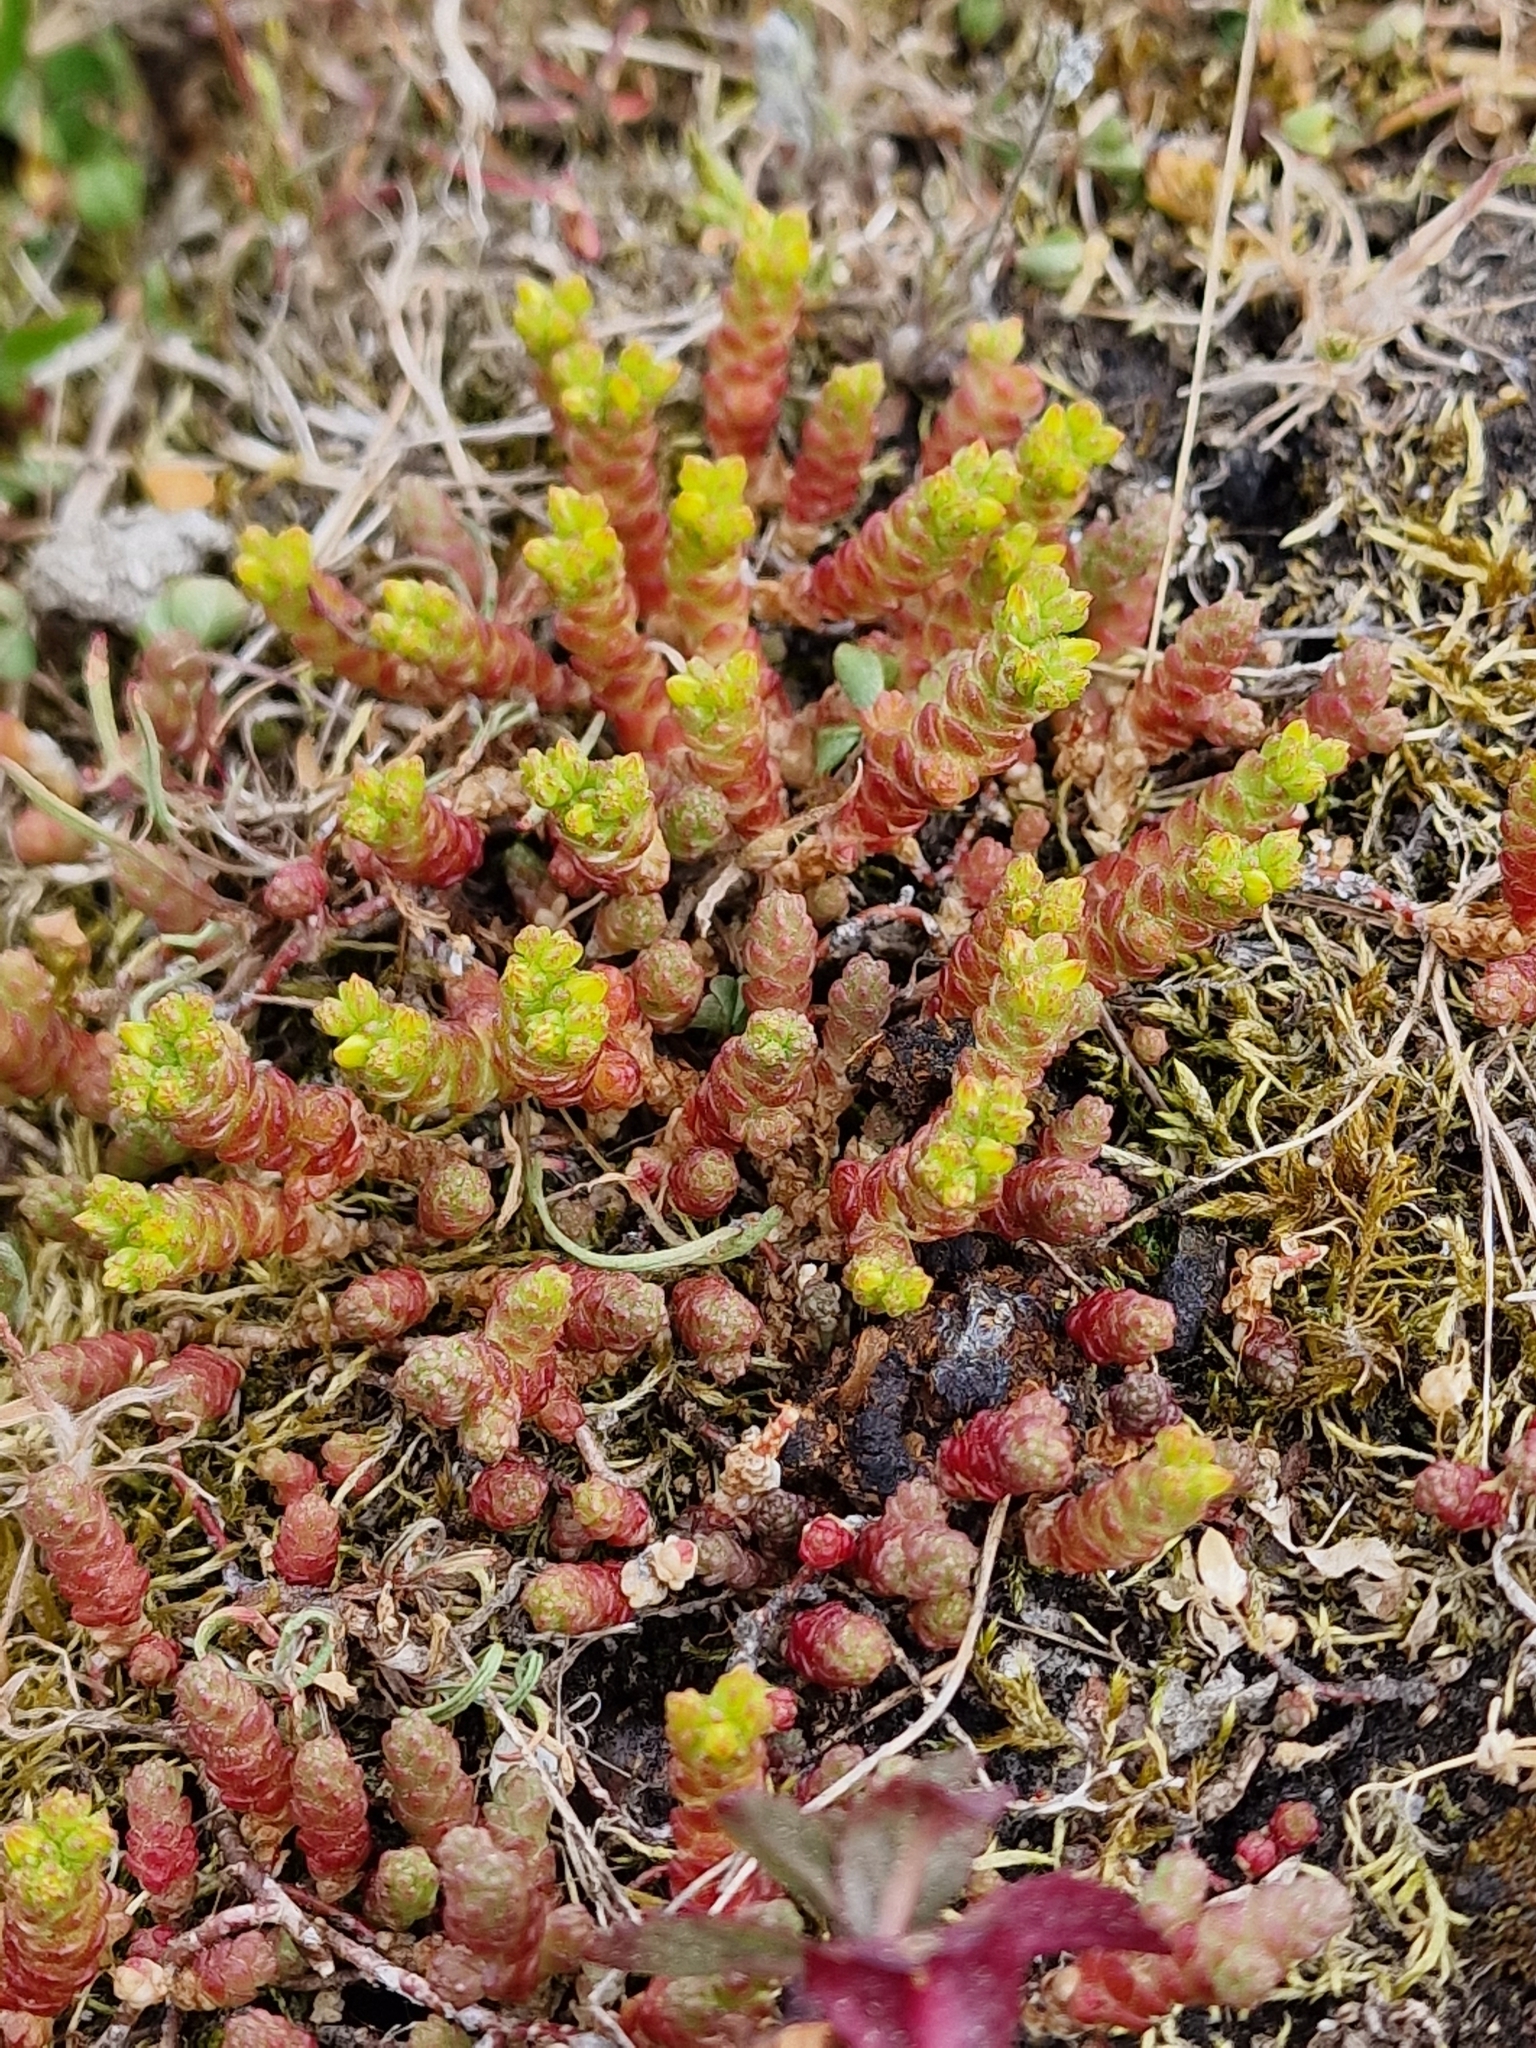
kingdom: Plantae
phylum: Tracheophyta
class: Magnoliopsida
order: Saxifragales
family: Crassulaceae
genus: Sedum
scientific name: Sedum acre
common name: Biting stonecrop
